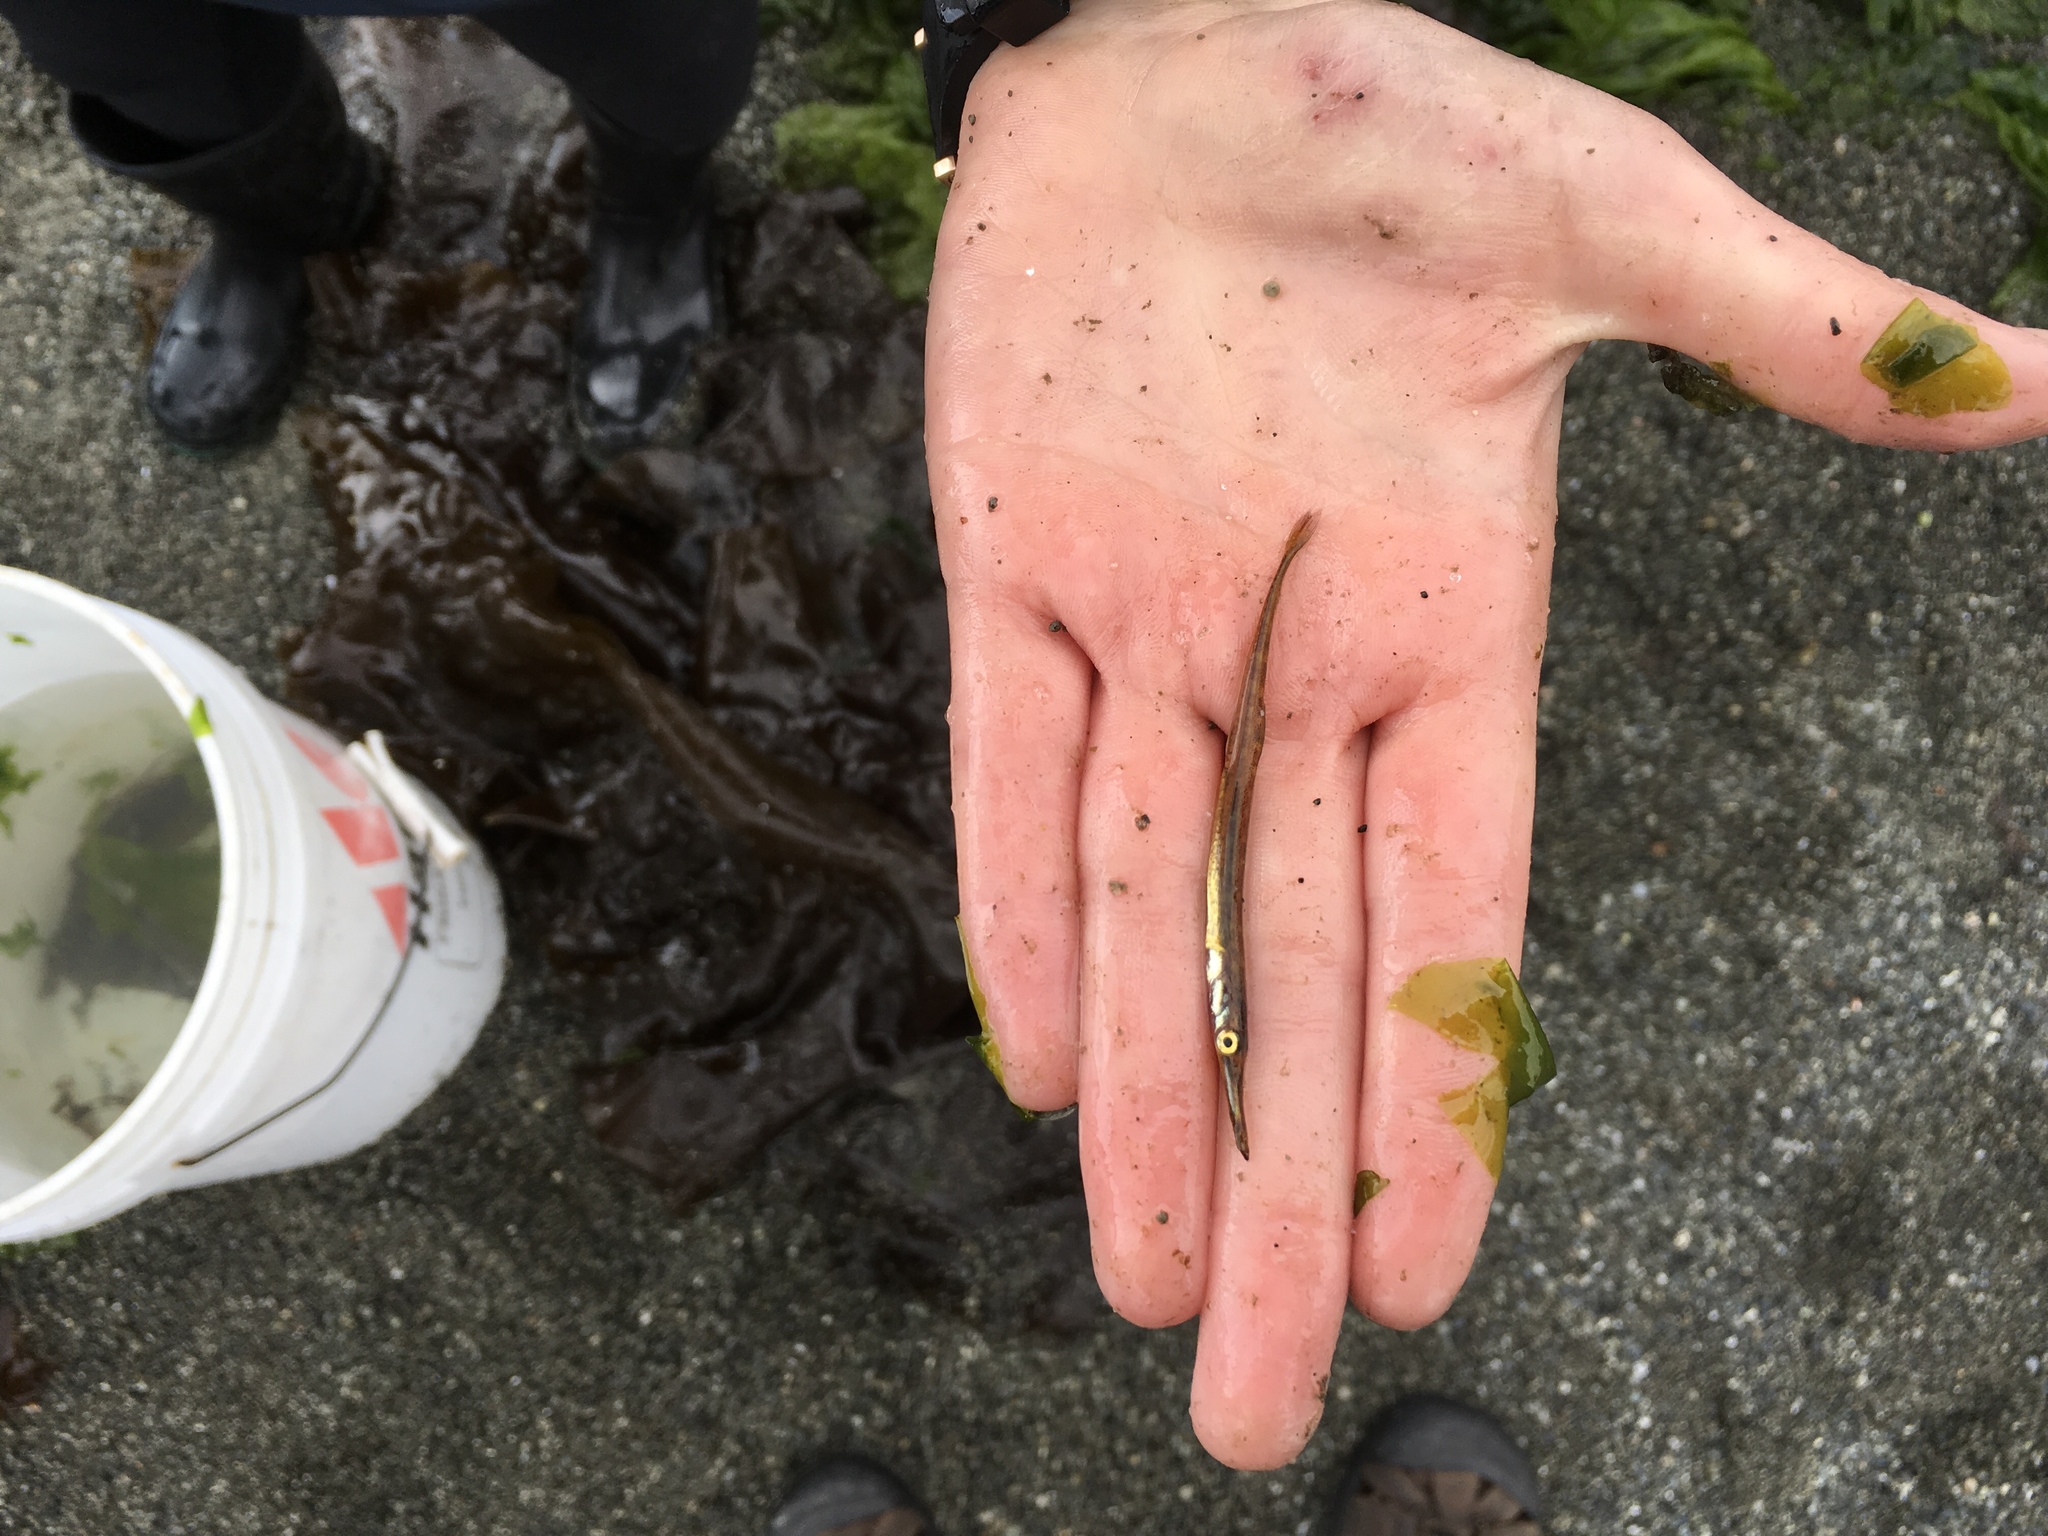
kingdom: Animalia
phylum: Chordata
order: Gasterosteiformes
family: Aulorhynchidae
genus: Aulorhynchus
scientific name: Aulorhynchus flavidus
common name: Tube-snout
